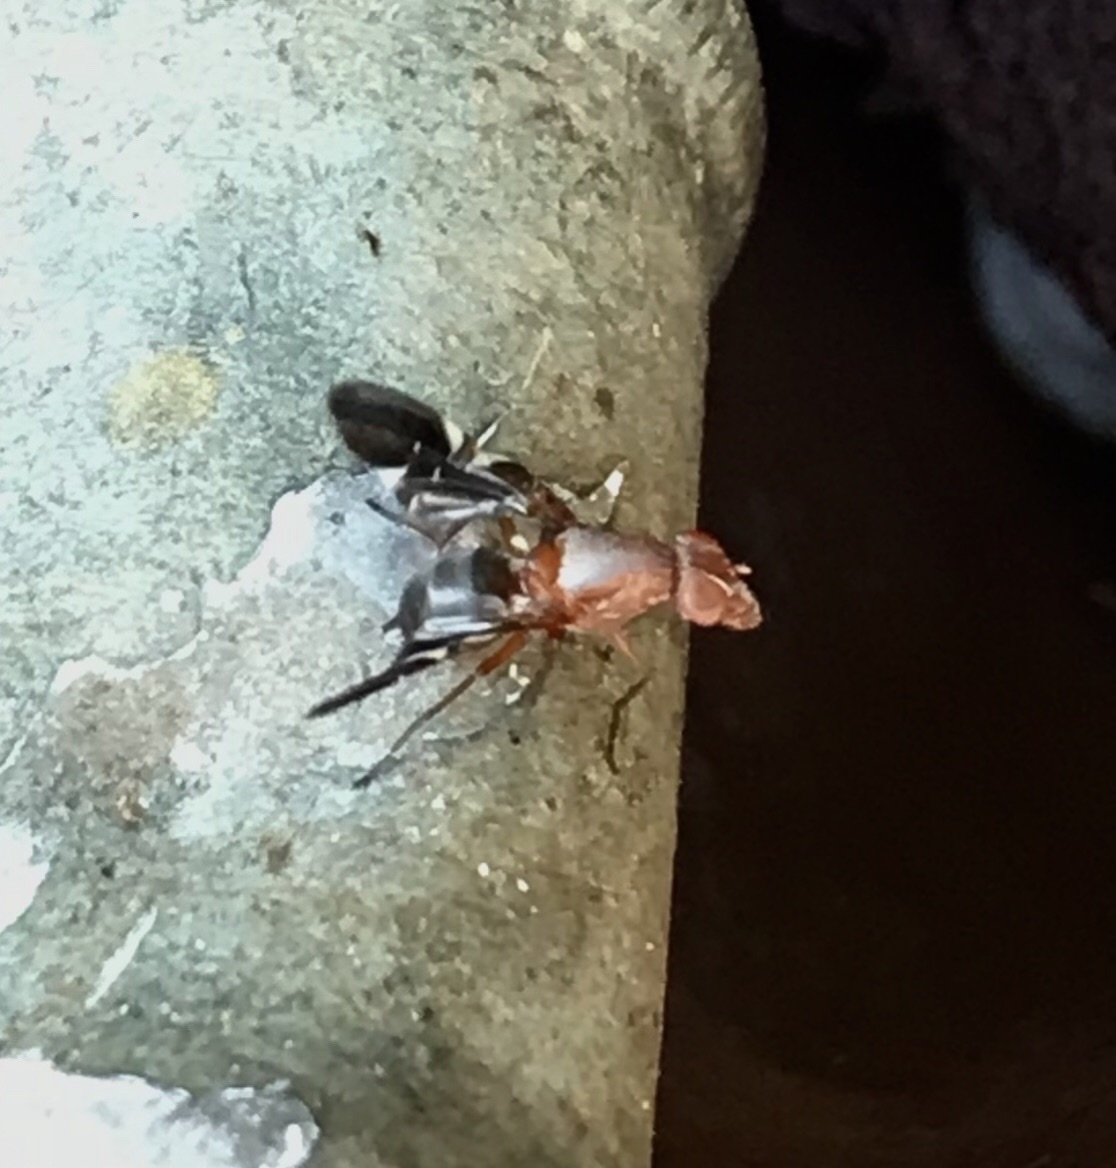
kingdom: Animalia
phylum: Arthropoda
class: Insecta
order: Diptera
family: Ulidiidae
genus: Delphinia
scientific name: Delphinia picta
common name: Common picture-winged fly
